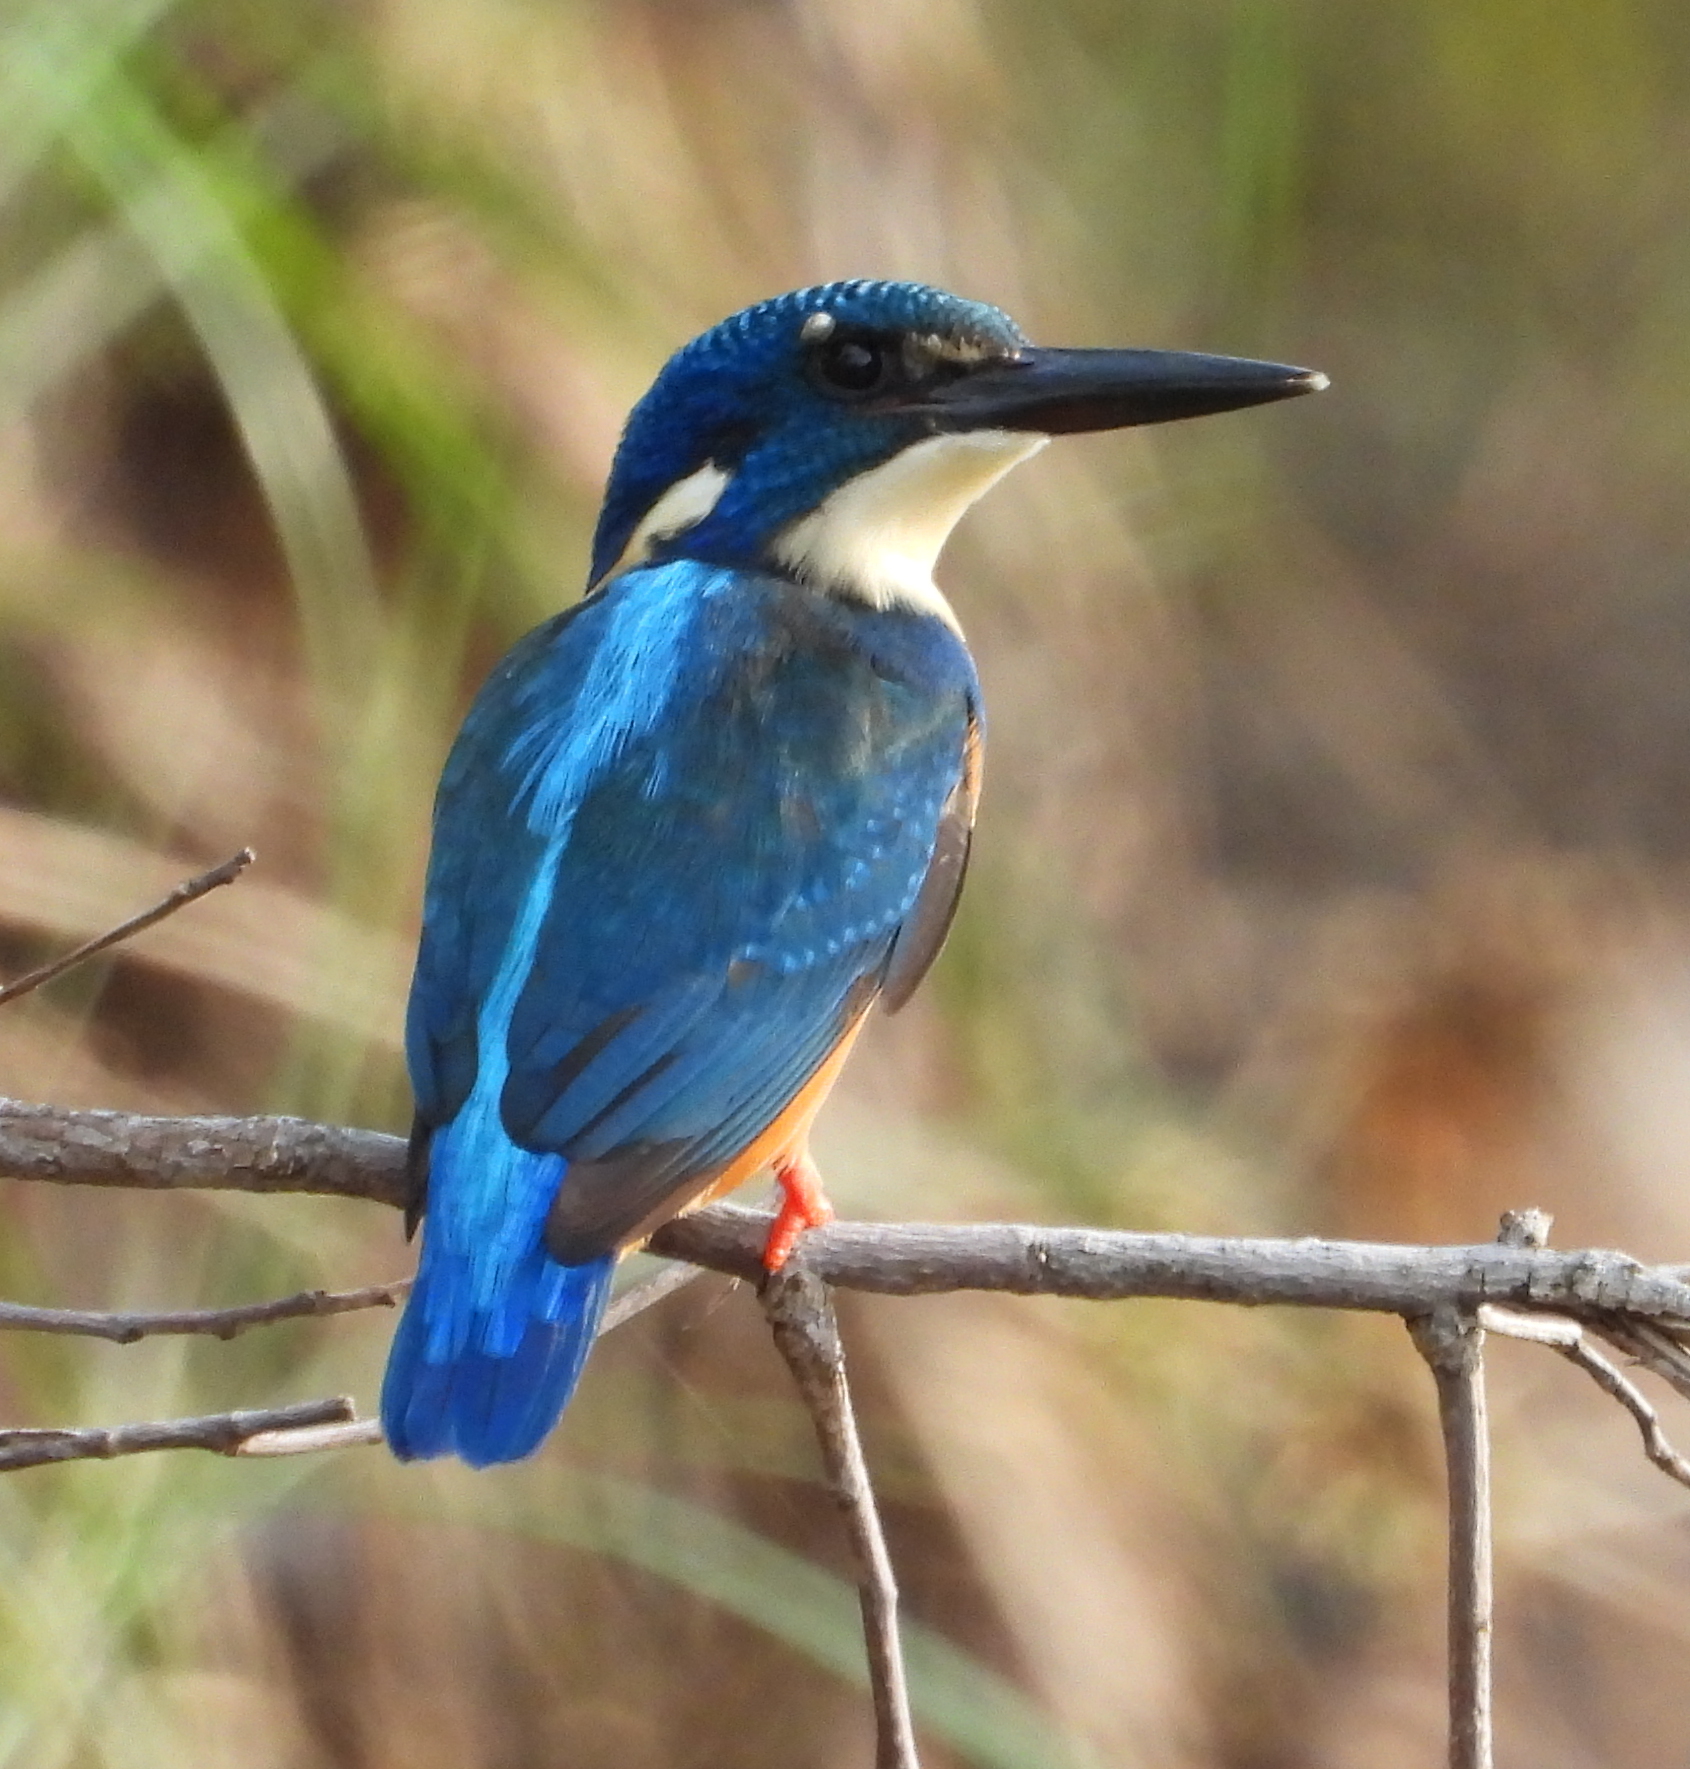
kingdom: Animalia
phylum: Chordata
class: Aves
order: Coraciiformes
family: Alcedinidae
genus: Alcedo
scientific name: Alcedo semitorquata
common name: Half-collared kingfisher
